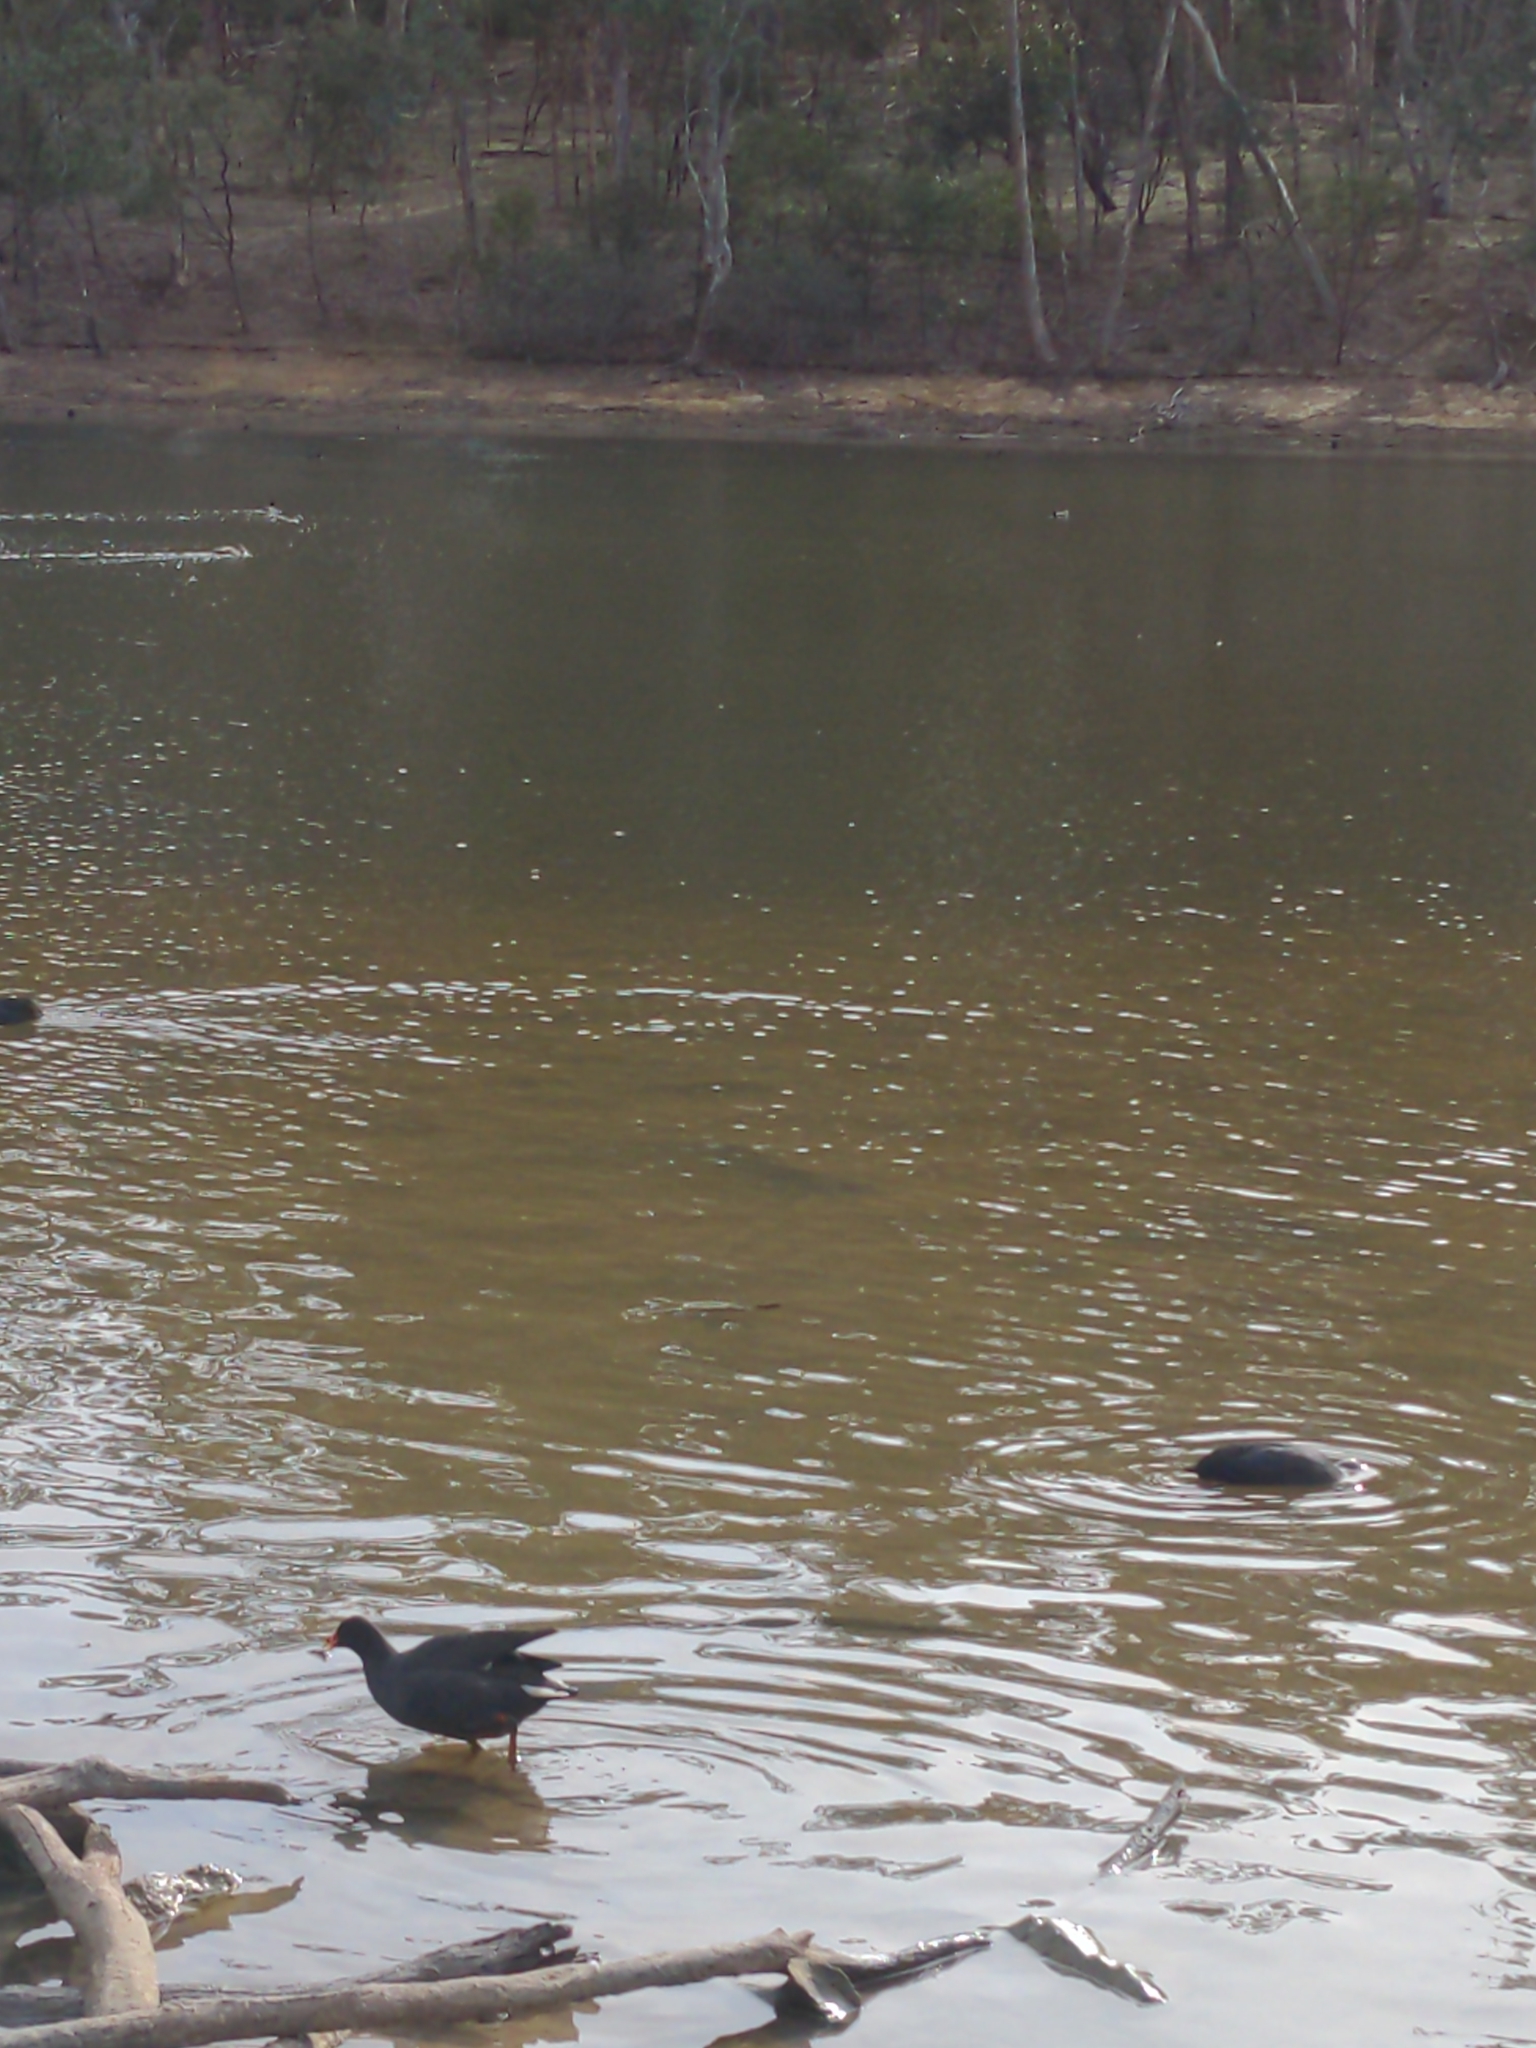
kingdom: Animalia
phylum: Chordata
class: Aves
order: Gruiformes
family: Rallidae
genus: Gallinula
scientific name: Gallinula tenebrosa
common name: Dusky moorhen
